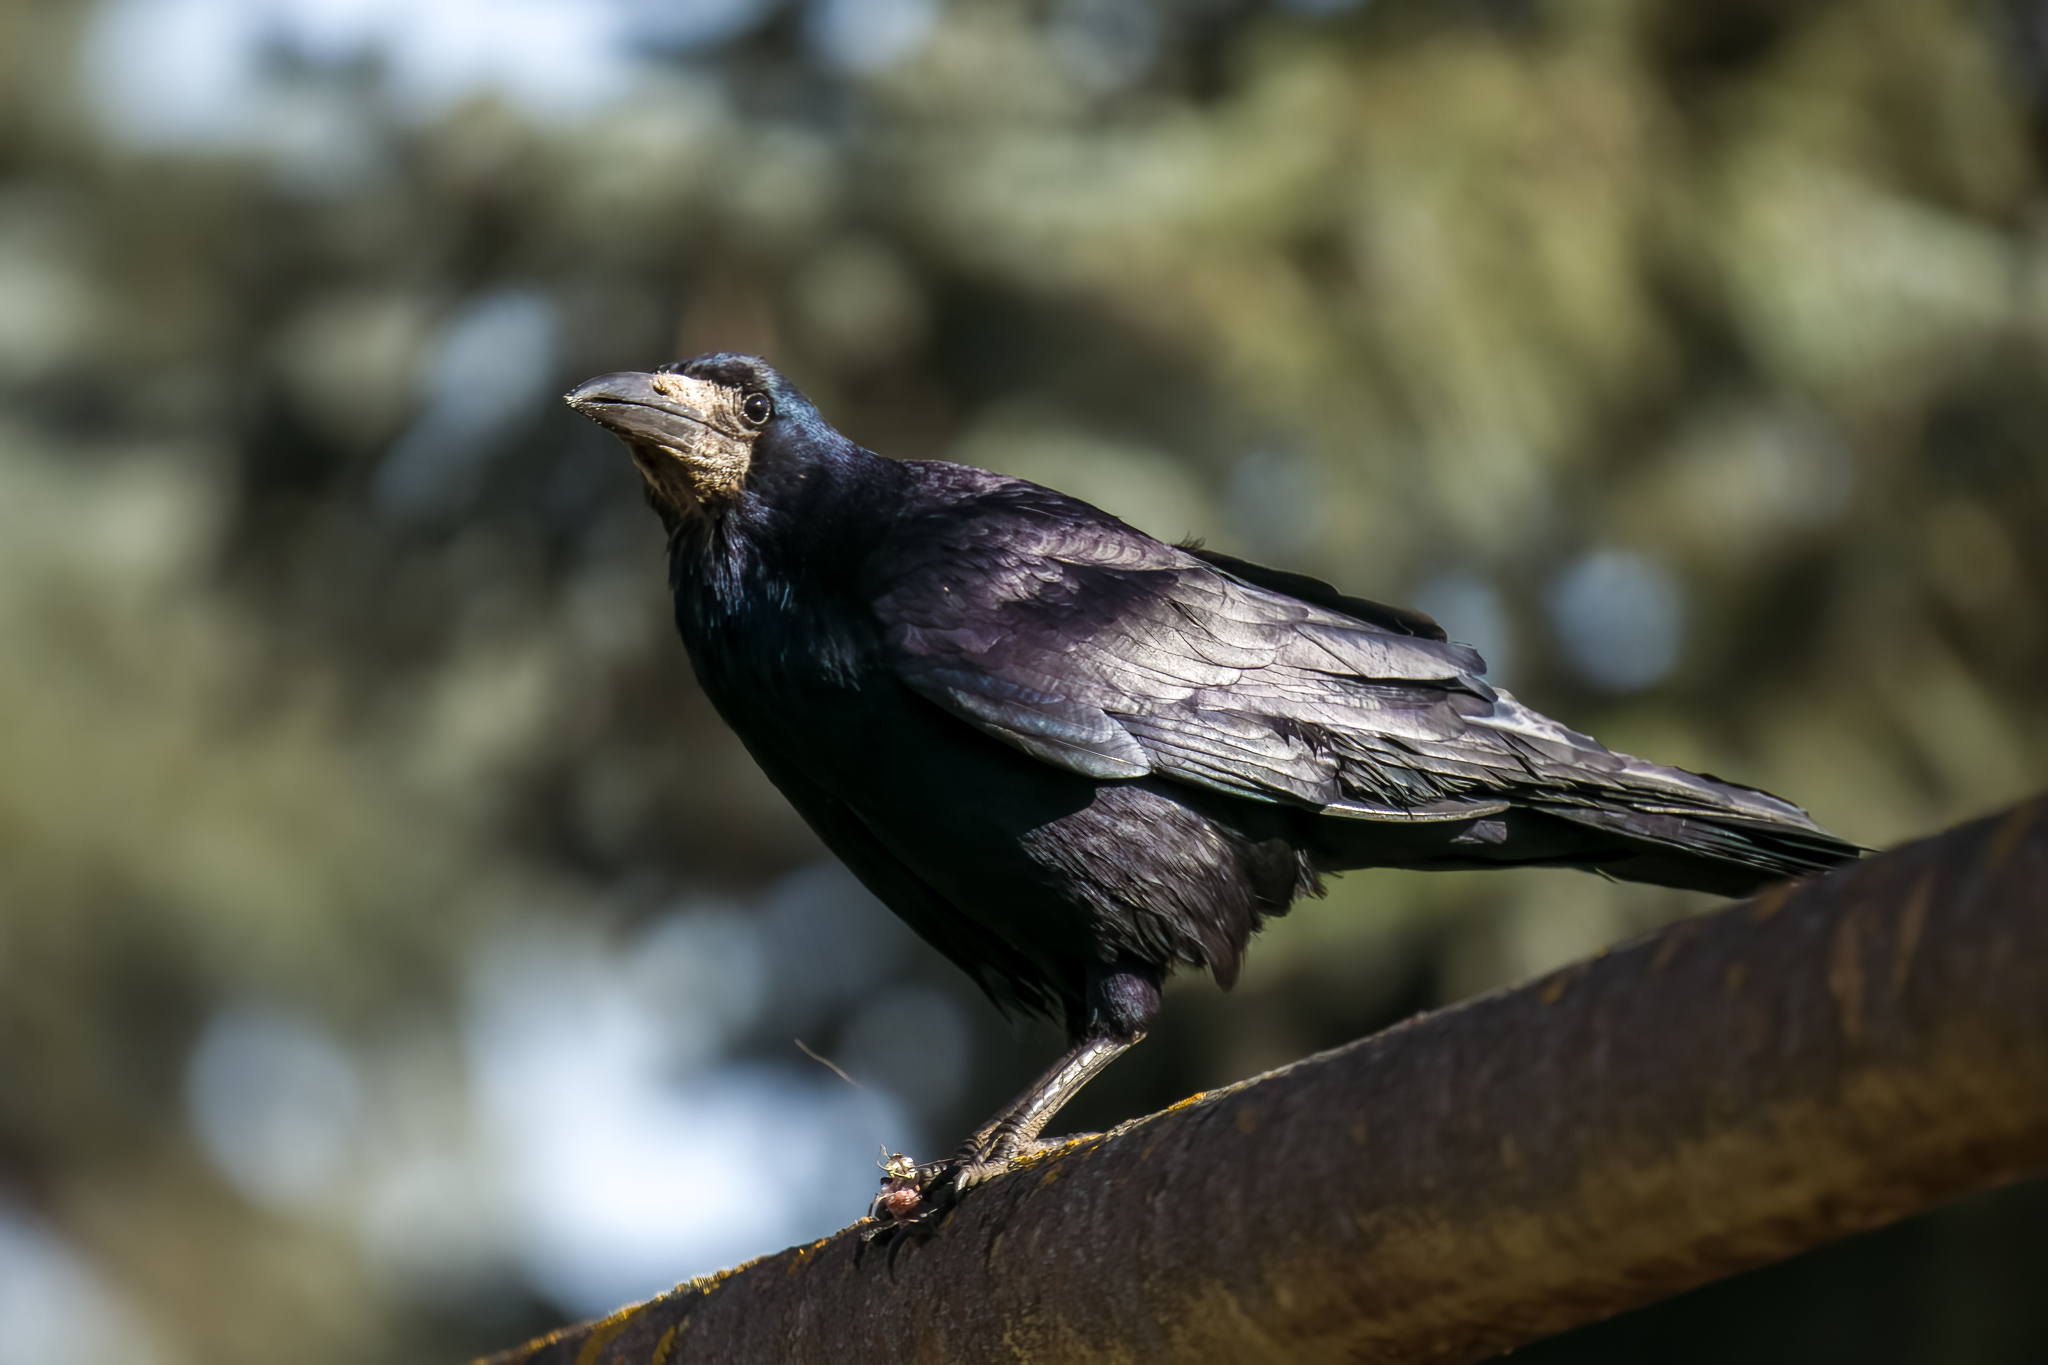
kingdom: Animalia
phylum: Chordata
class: Aves
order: Passeriformes
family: Corvidae
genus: Corvus
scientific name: Corvus frugilegus
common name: Rook
